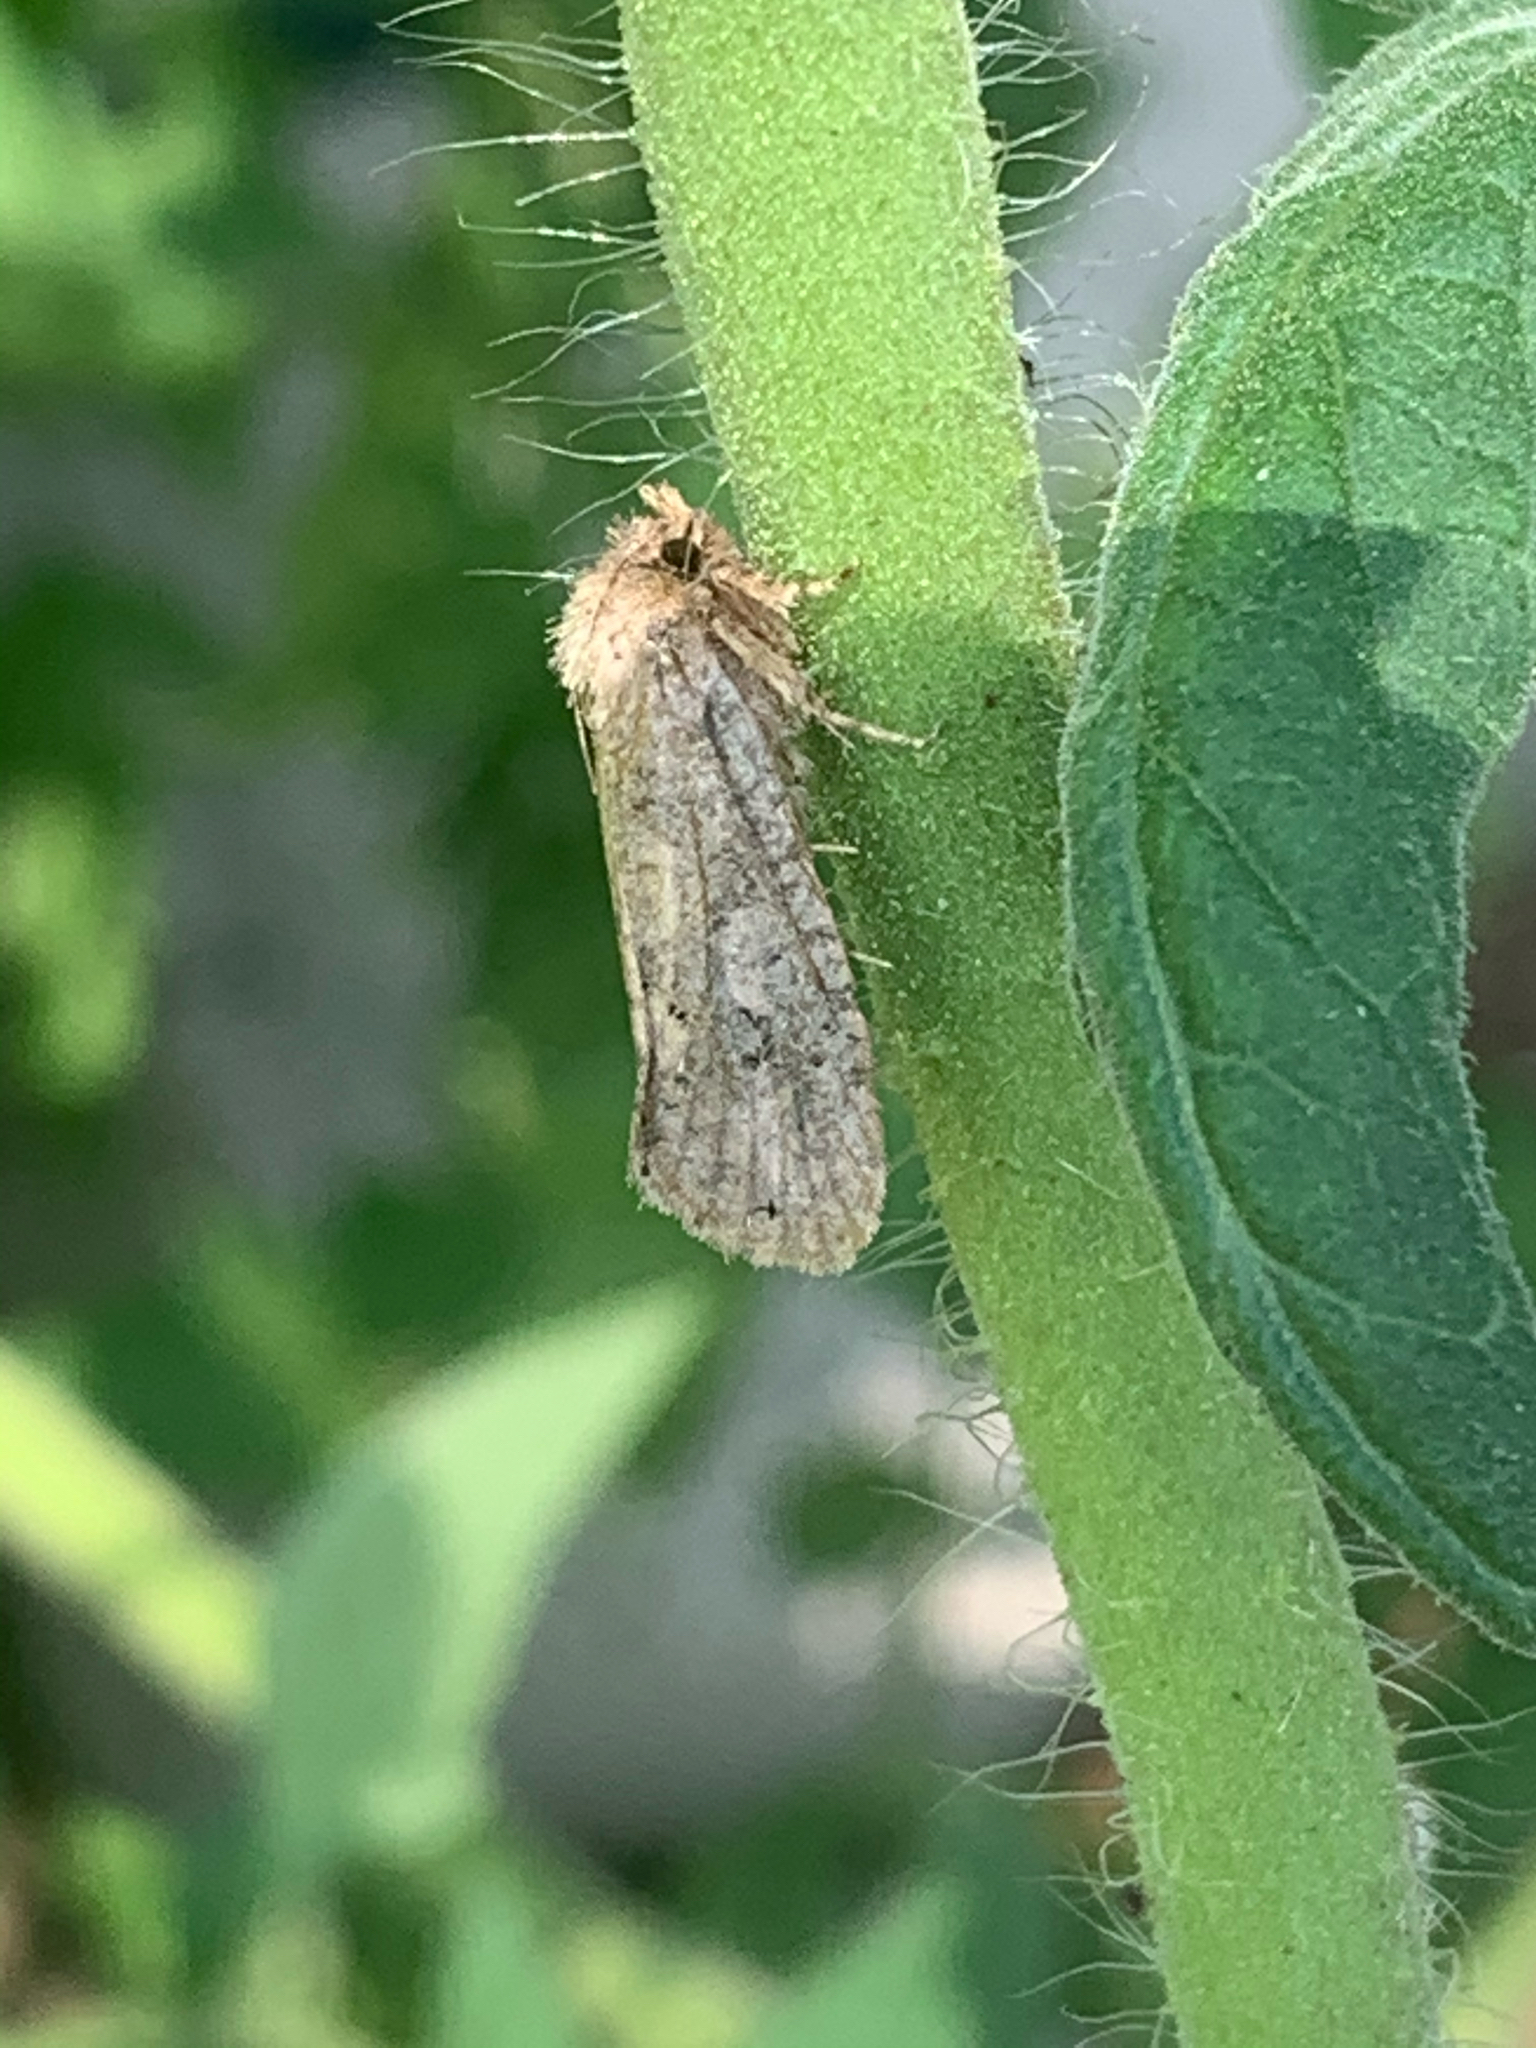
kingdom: Animalia
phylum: Arthropoda
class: Insecta
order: Lepidoptera
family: Tineidae
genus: Acrolophus
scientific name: Acrolophus arcanella
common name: Arcane grass tubeworm moth
